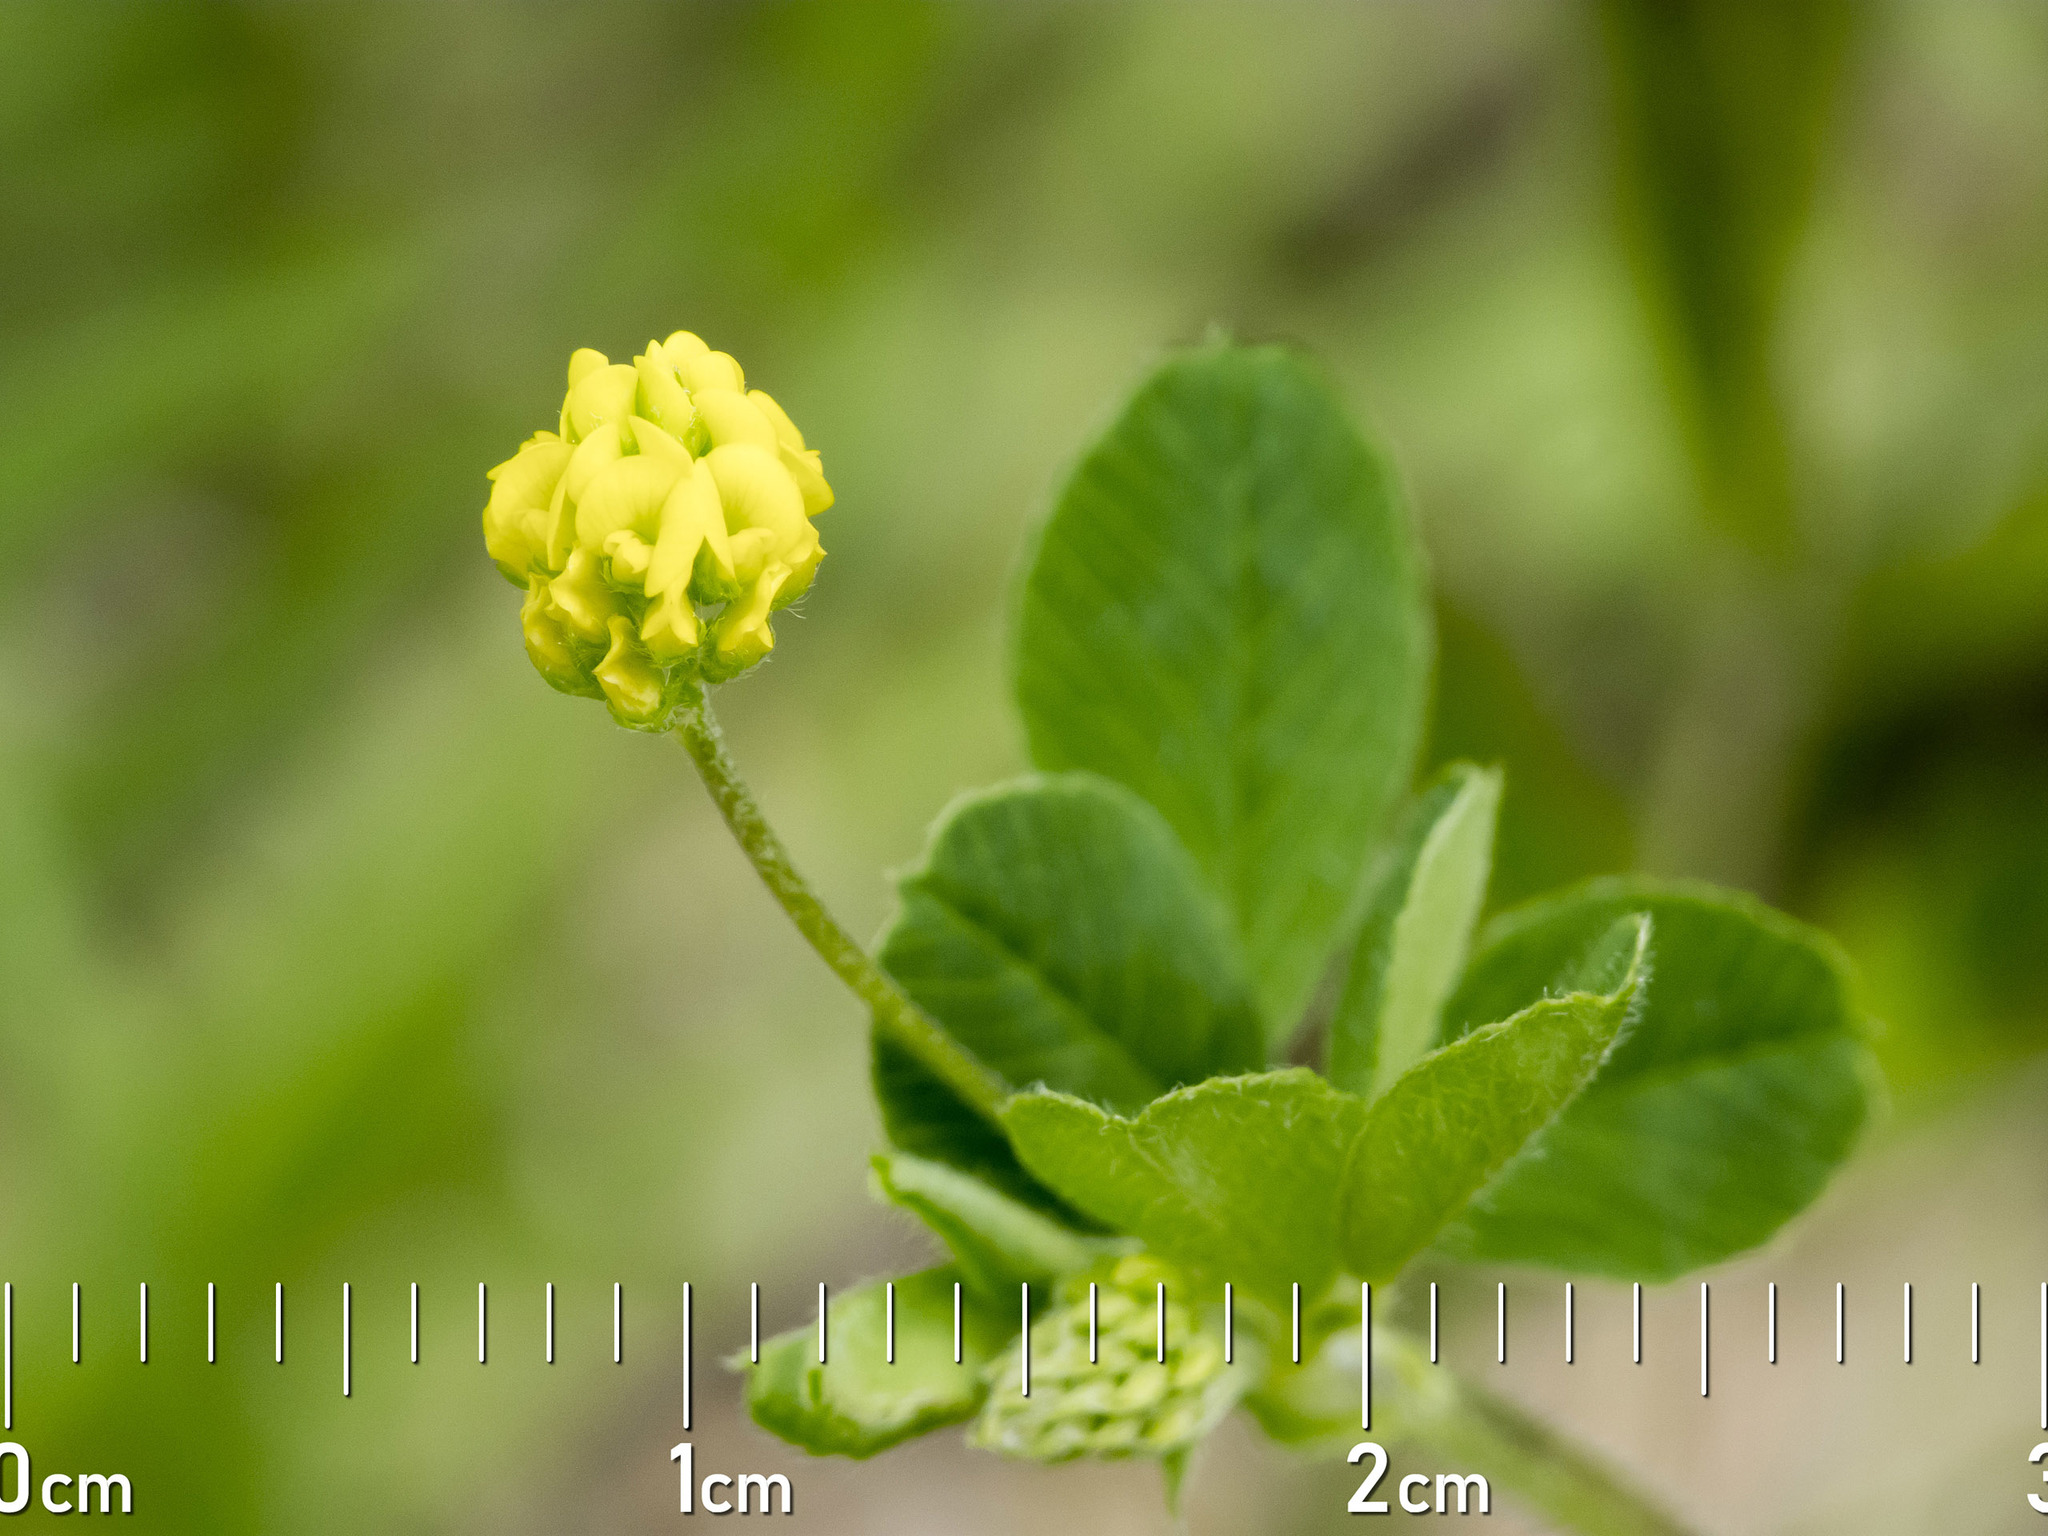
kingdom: Plantae
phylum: Tracheophyta
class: Magnoliopsida
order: Fabales
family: Fabaceae
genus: Medicago
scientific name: Medicago lupulina
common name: Black medick
